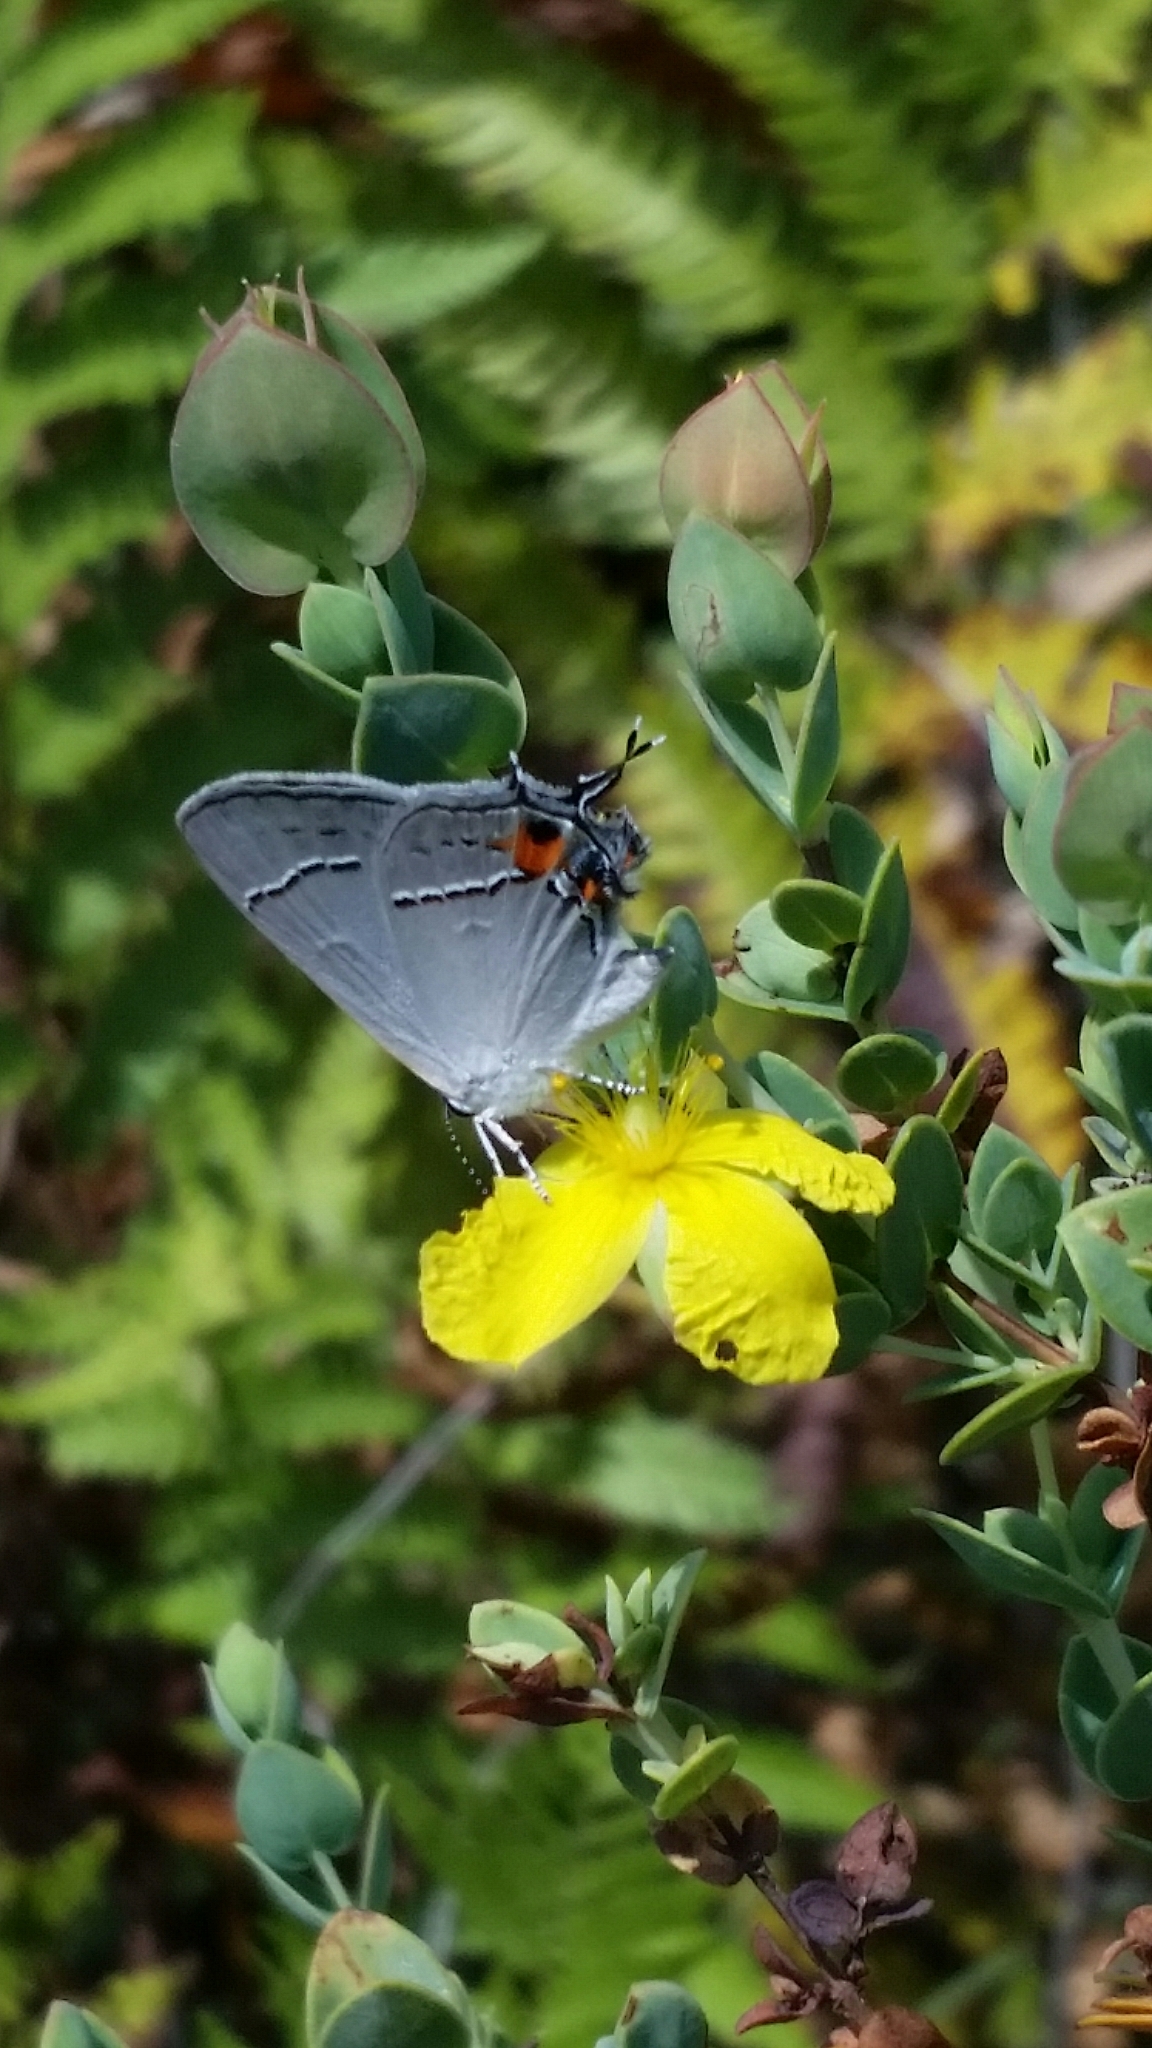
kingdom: Animalia
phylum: Arthropoda
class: Insecta
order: Lepidoptera
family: Lycaenidae
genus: Strymon
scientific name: Strymon melinus
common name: Gray hairstreak
